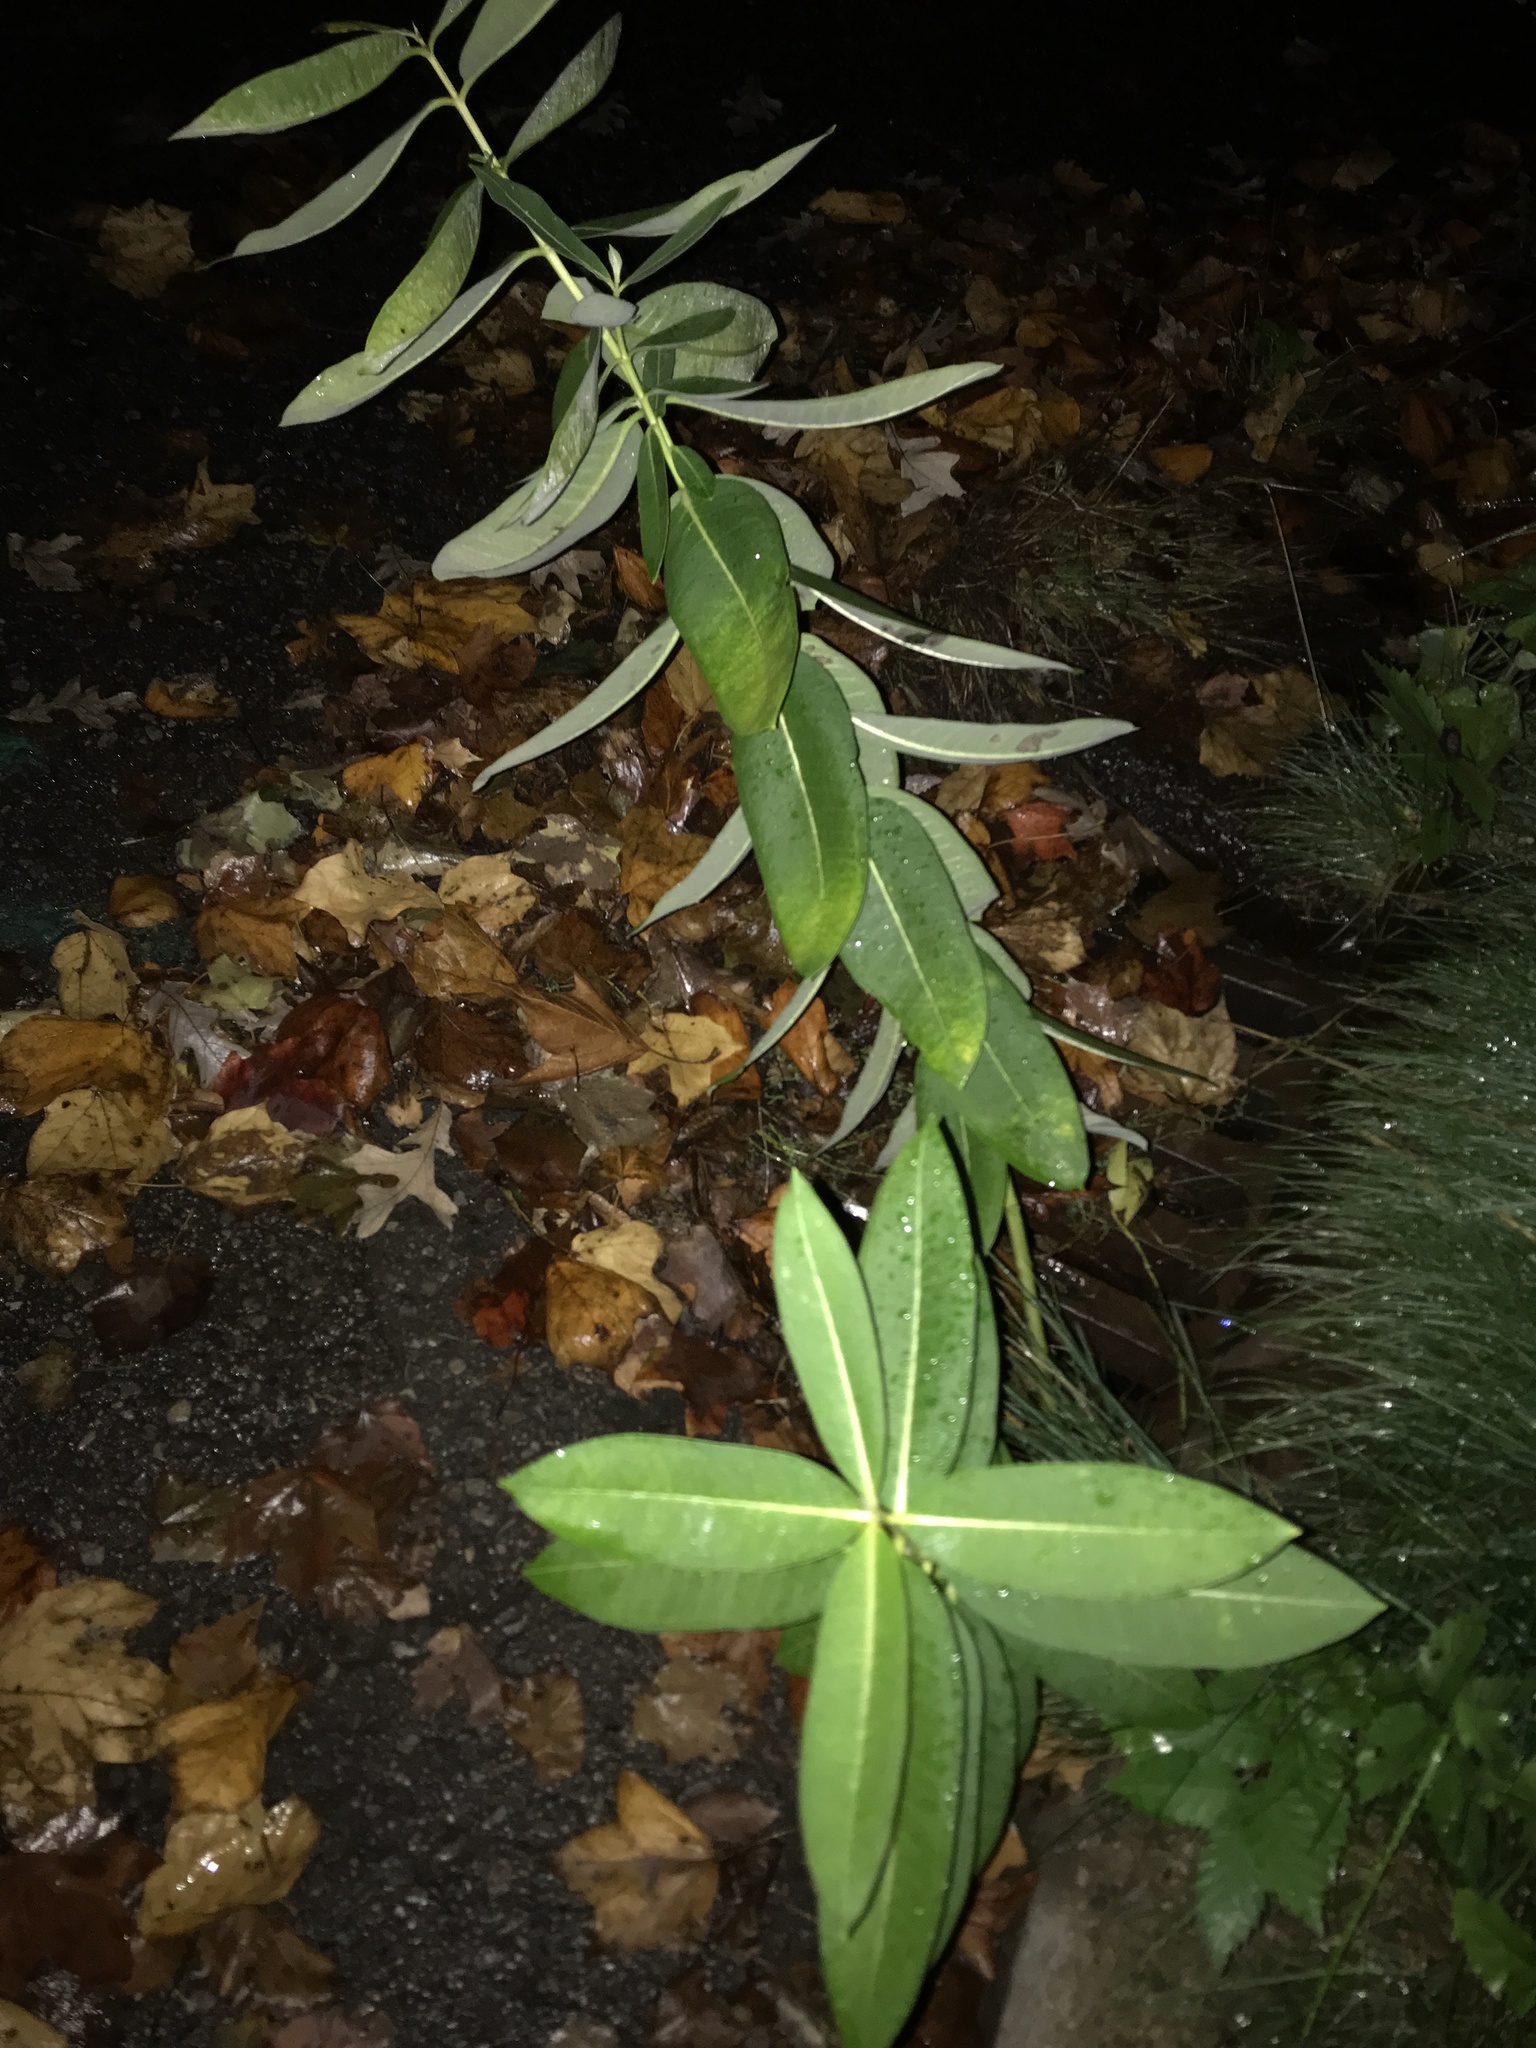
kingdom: Plantae
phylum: Tracheophyta
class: Magnoliopsida
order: Gentianales
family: Apocynaceae
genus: Asclepias
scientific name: Asclepias syriaca
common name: Common milkweed
